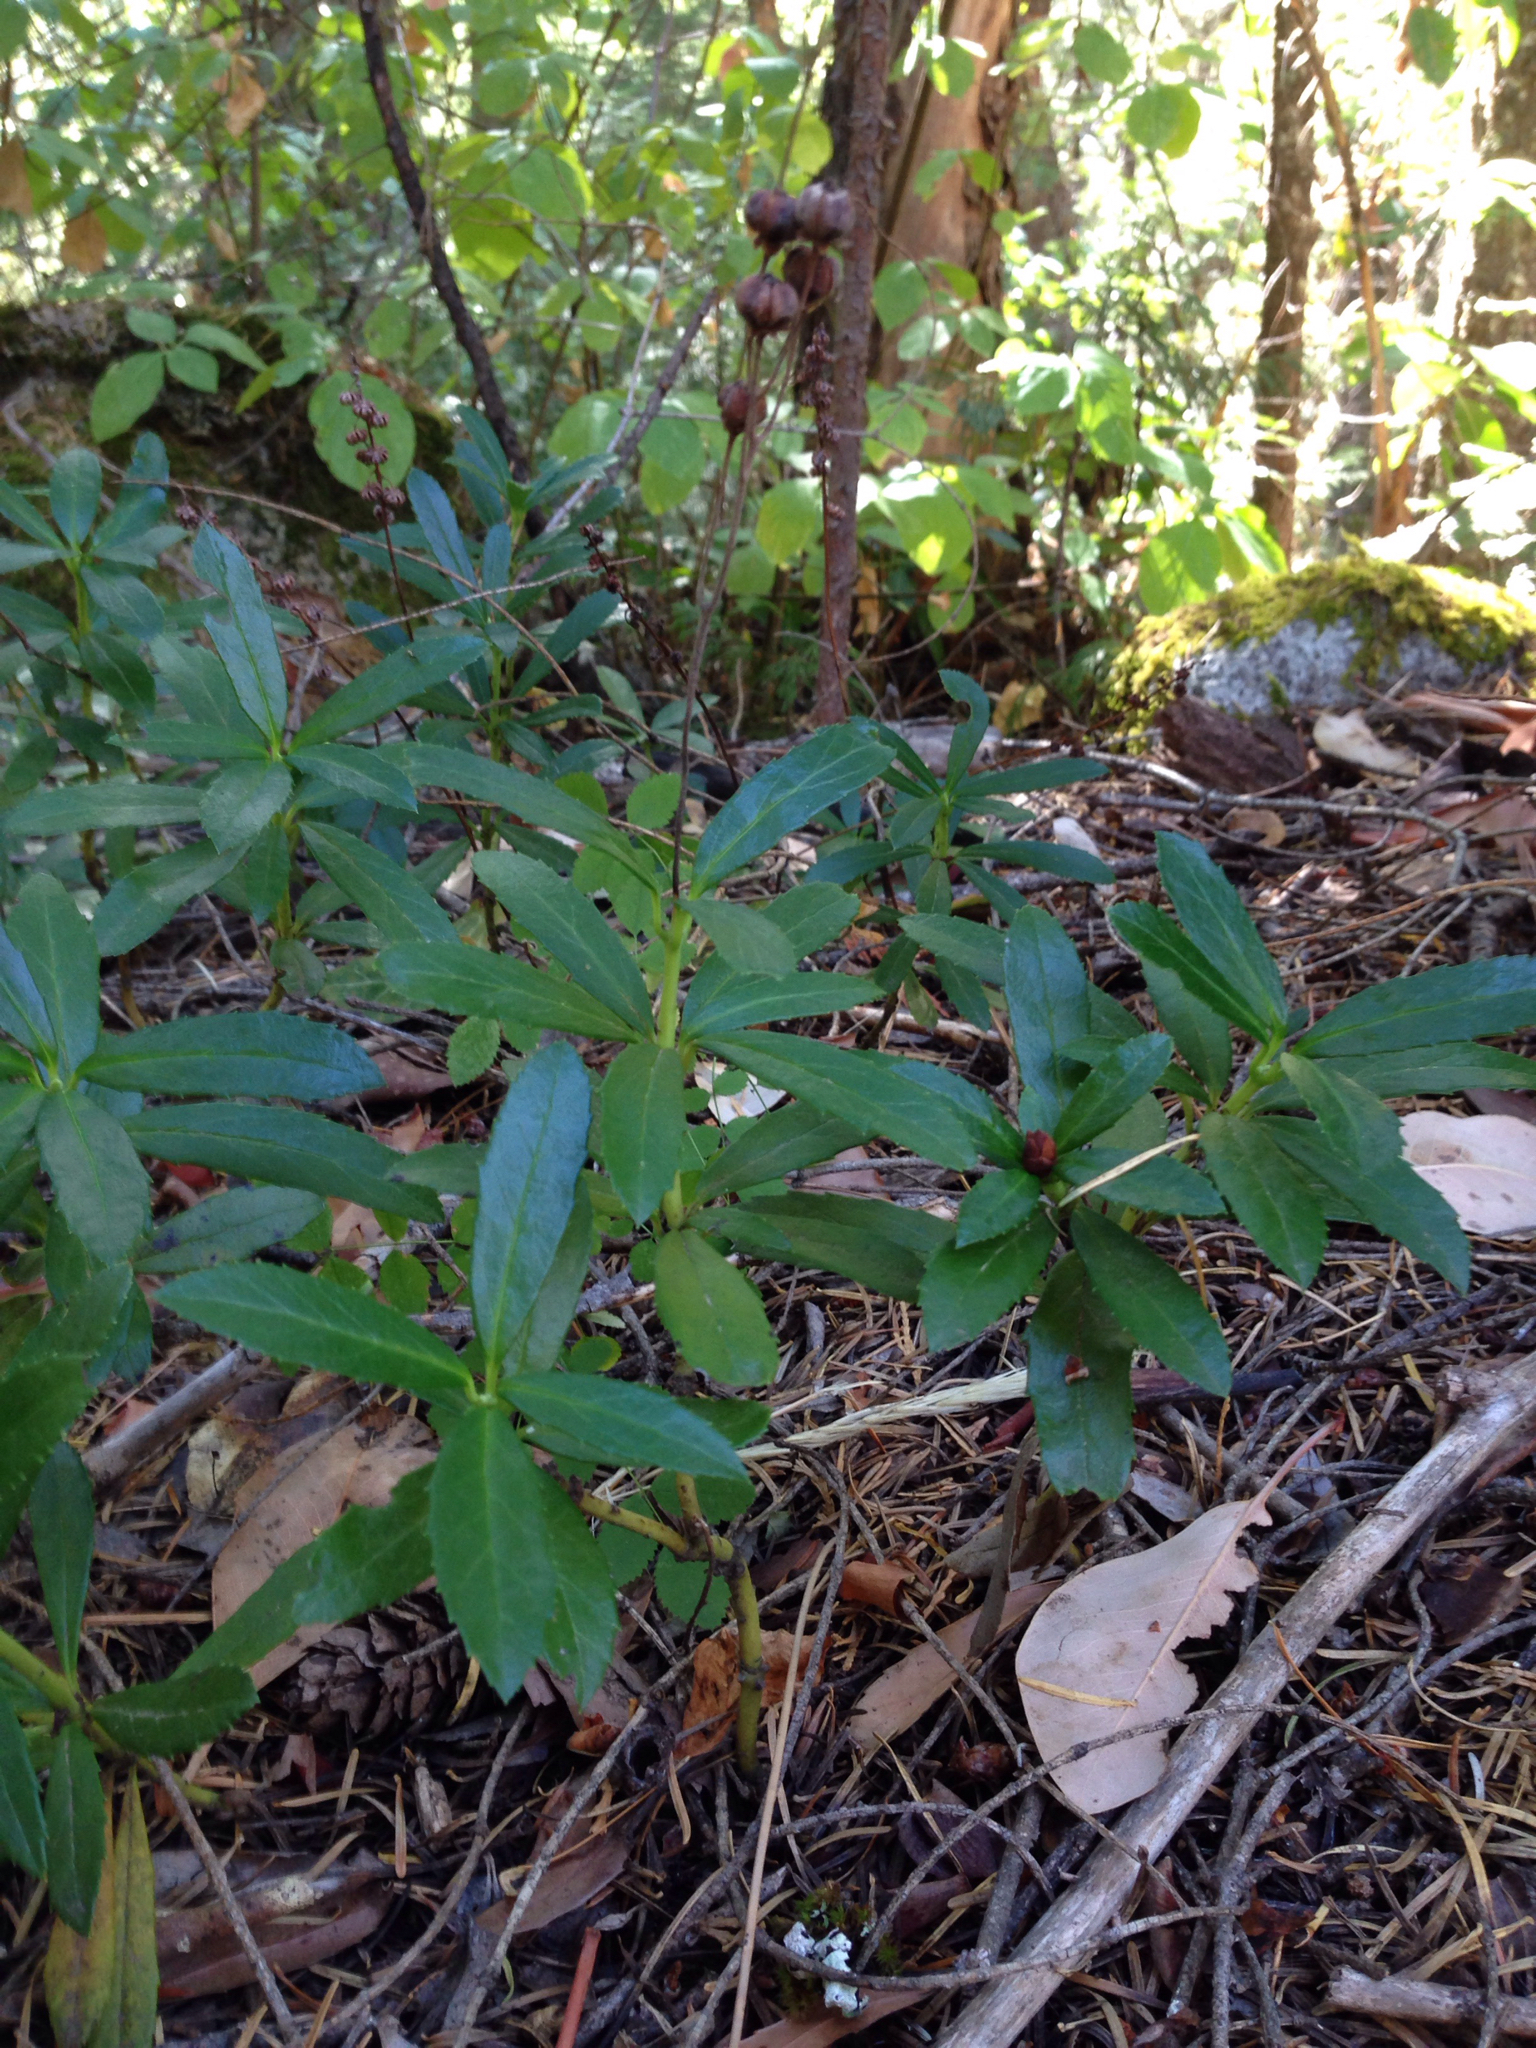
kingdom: Plantae
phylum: Tracheophyta
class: Magnoliopsida
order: Ericales
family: Ericaceae
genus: Chimaphila
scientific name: Chimaphila umbellata
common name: Pipsissewa
